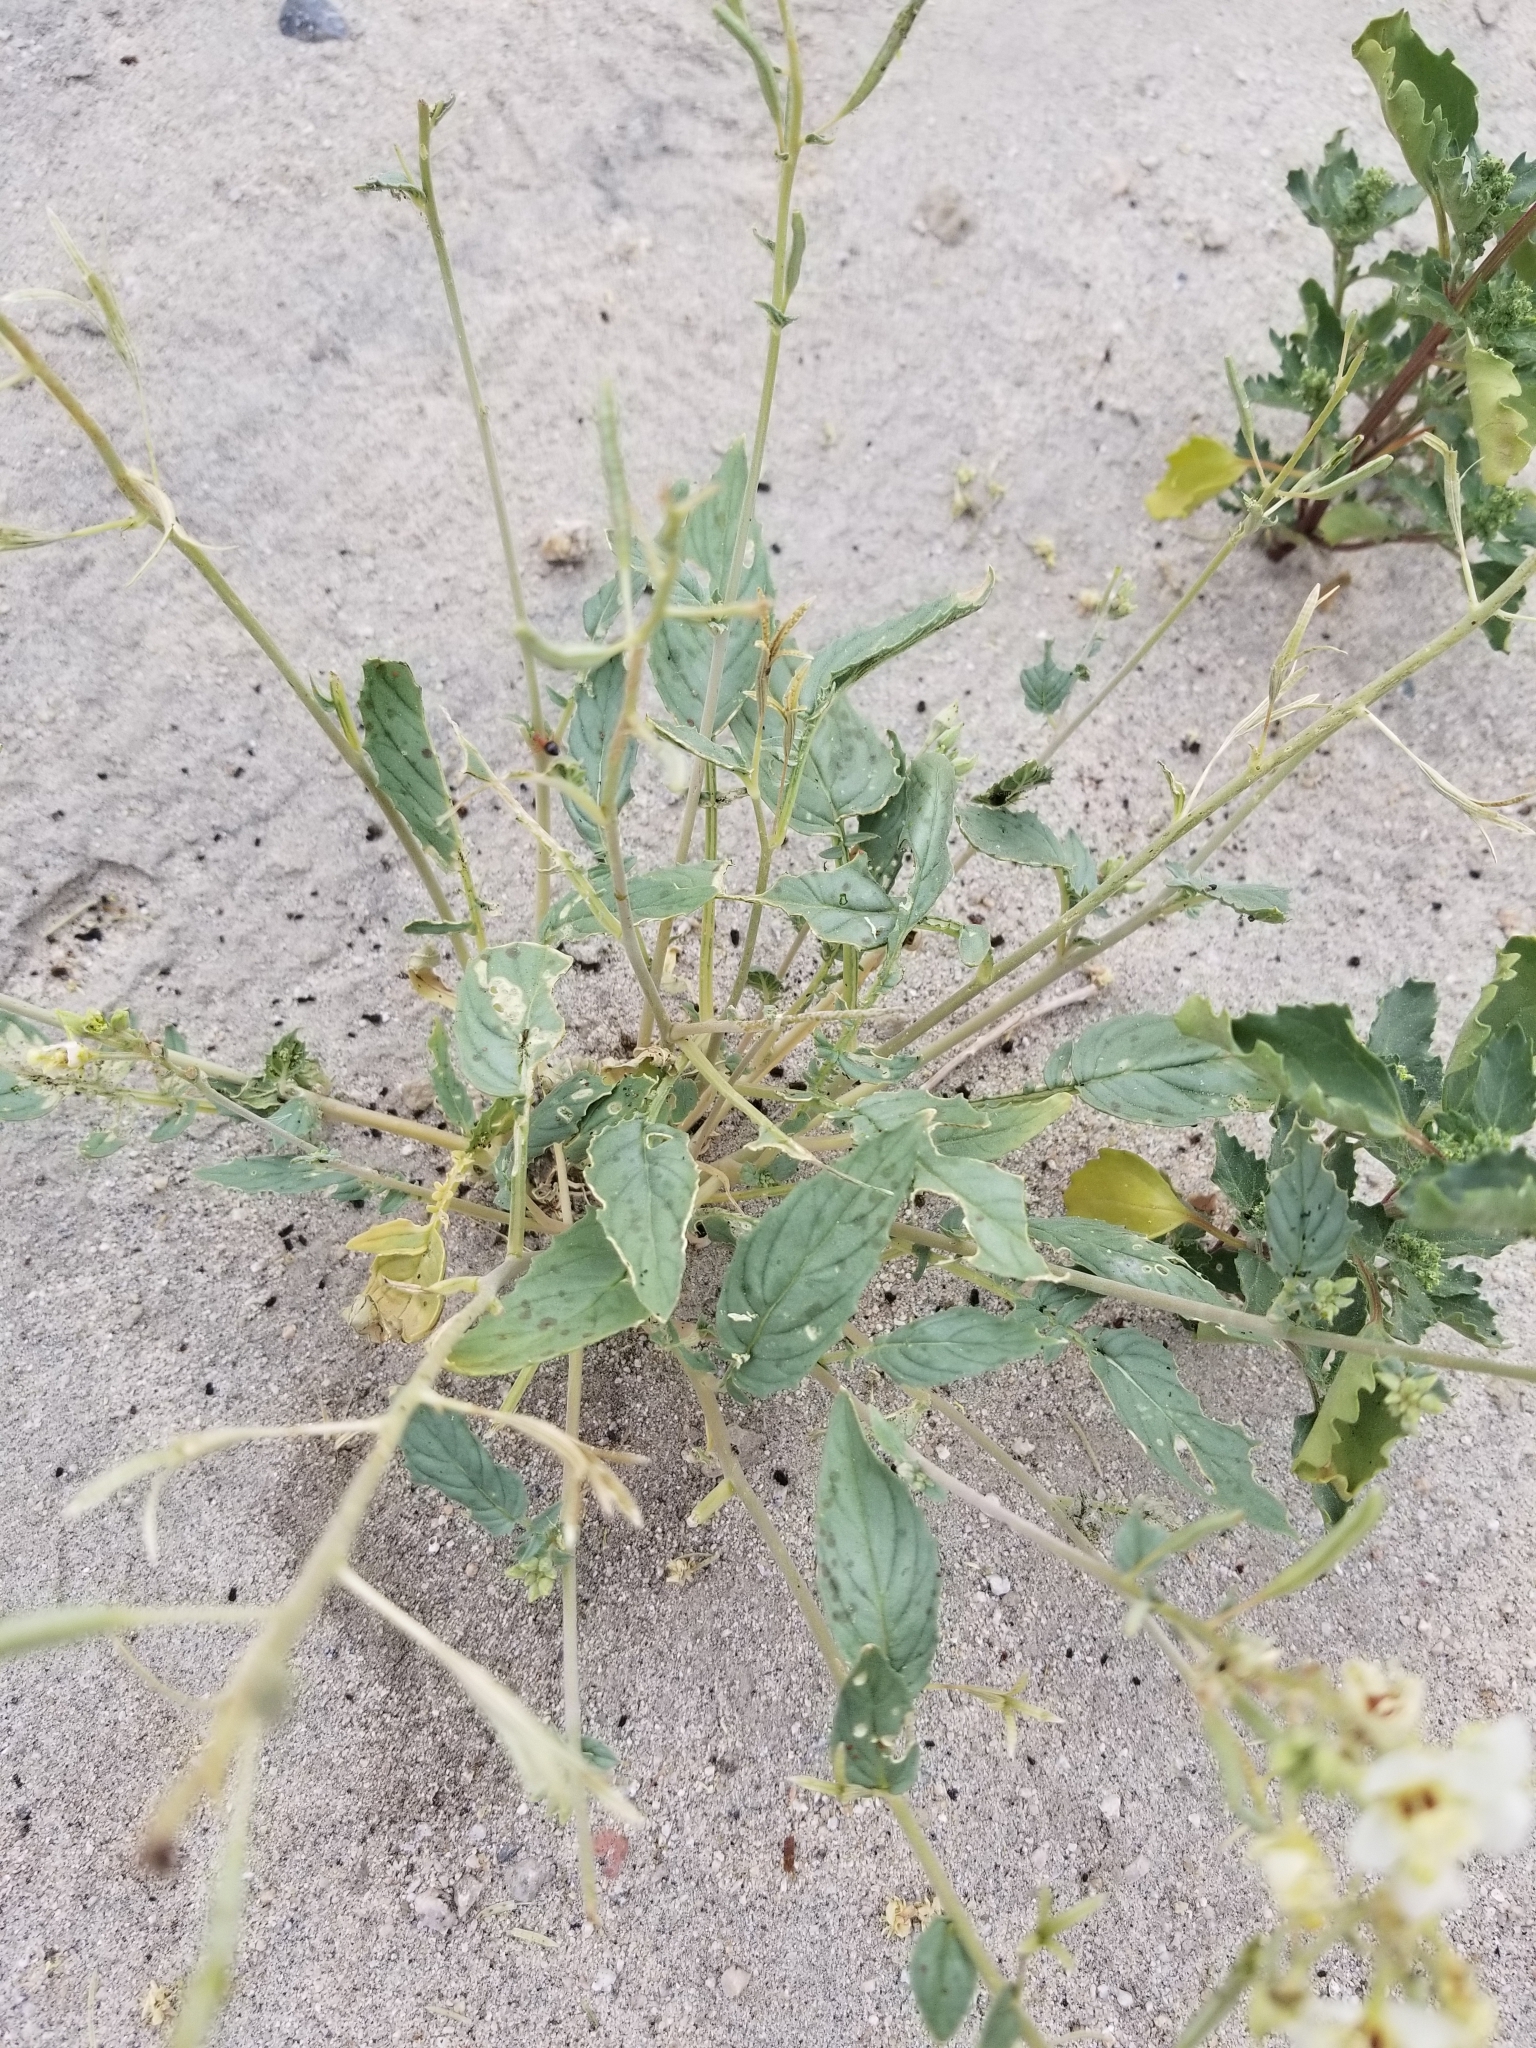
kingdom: Plantae
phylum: Tracheophyta
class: Magnoliopsida
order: Myrtales
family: Onagraceae
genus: Chylismia
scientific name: Chylismia claviformis
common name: Browneyes
